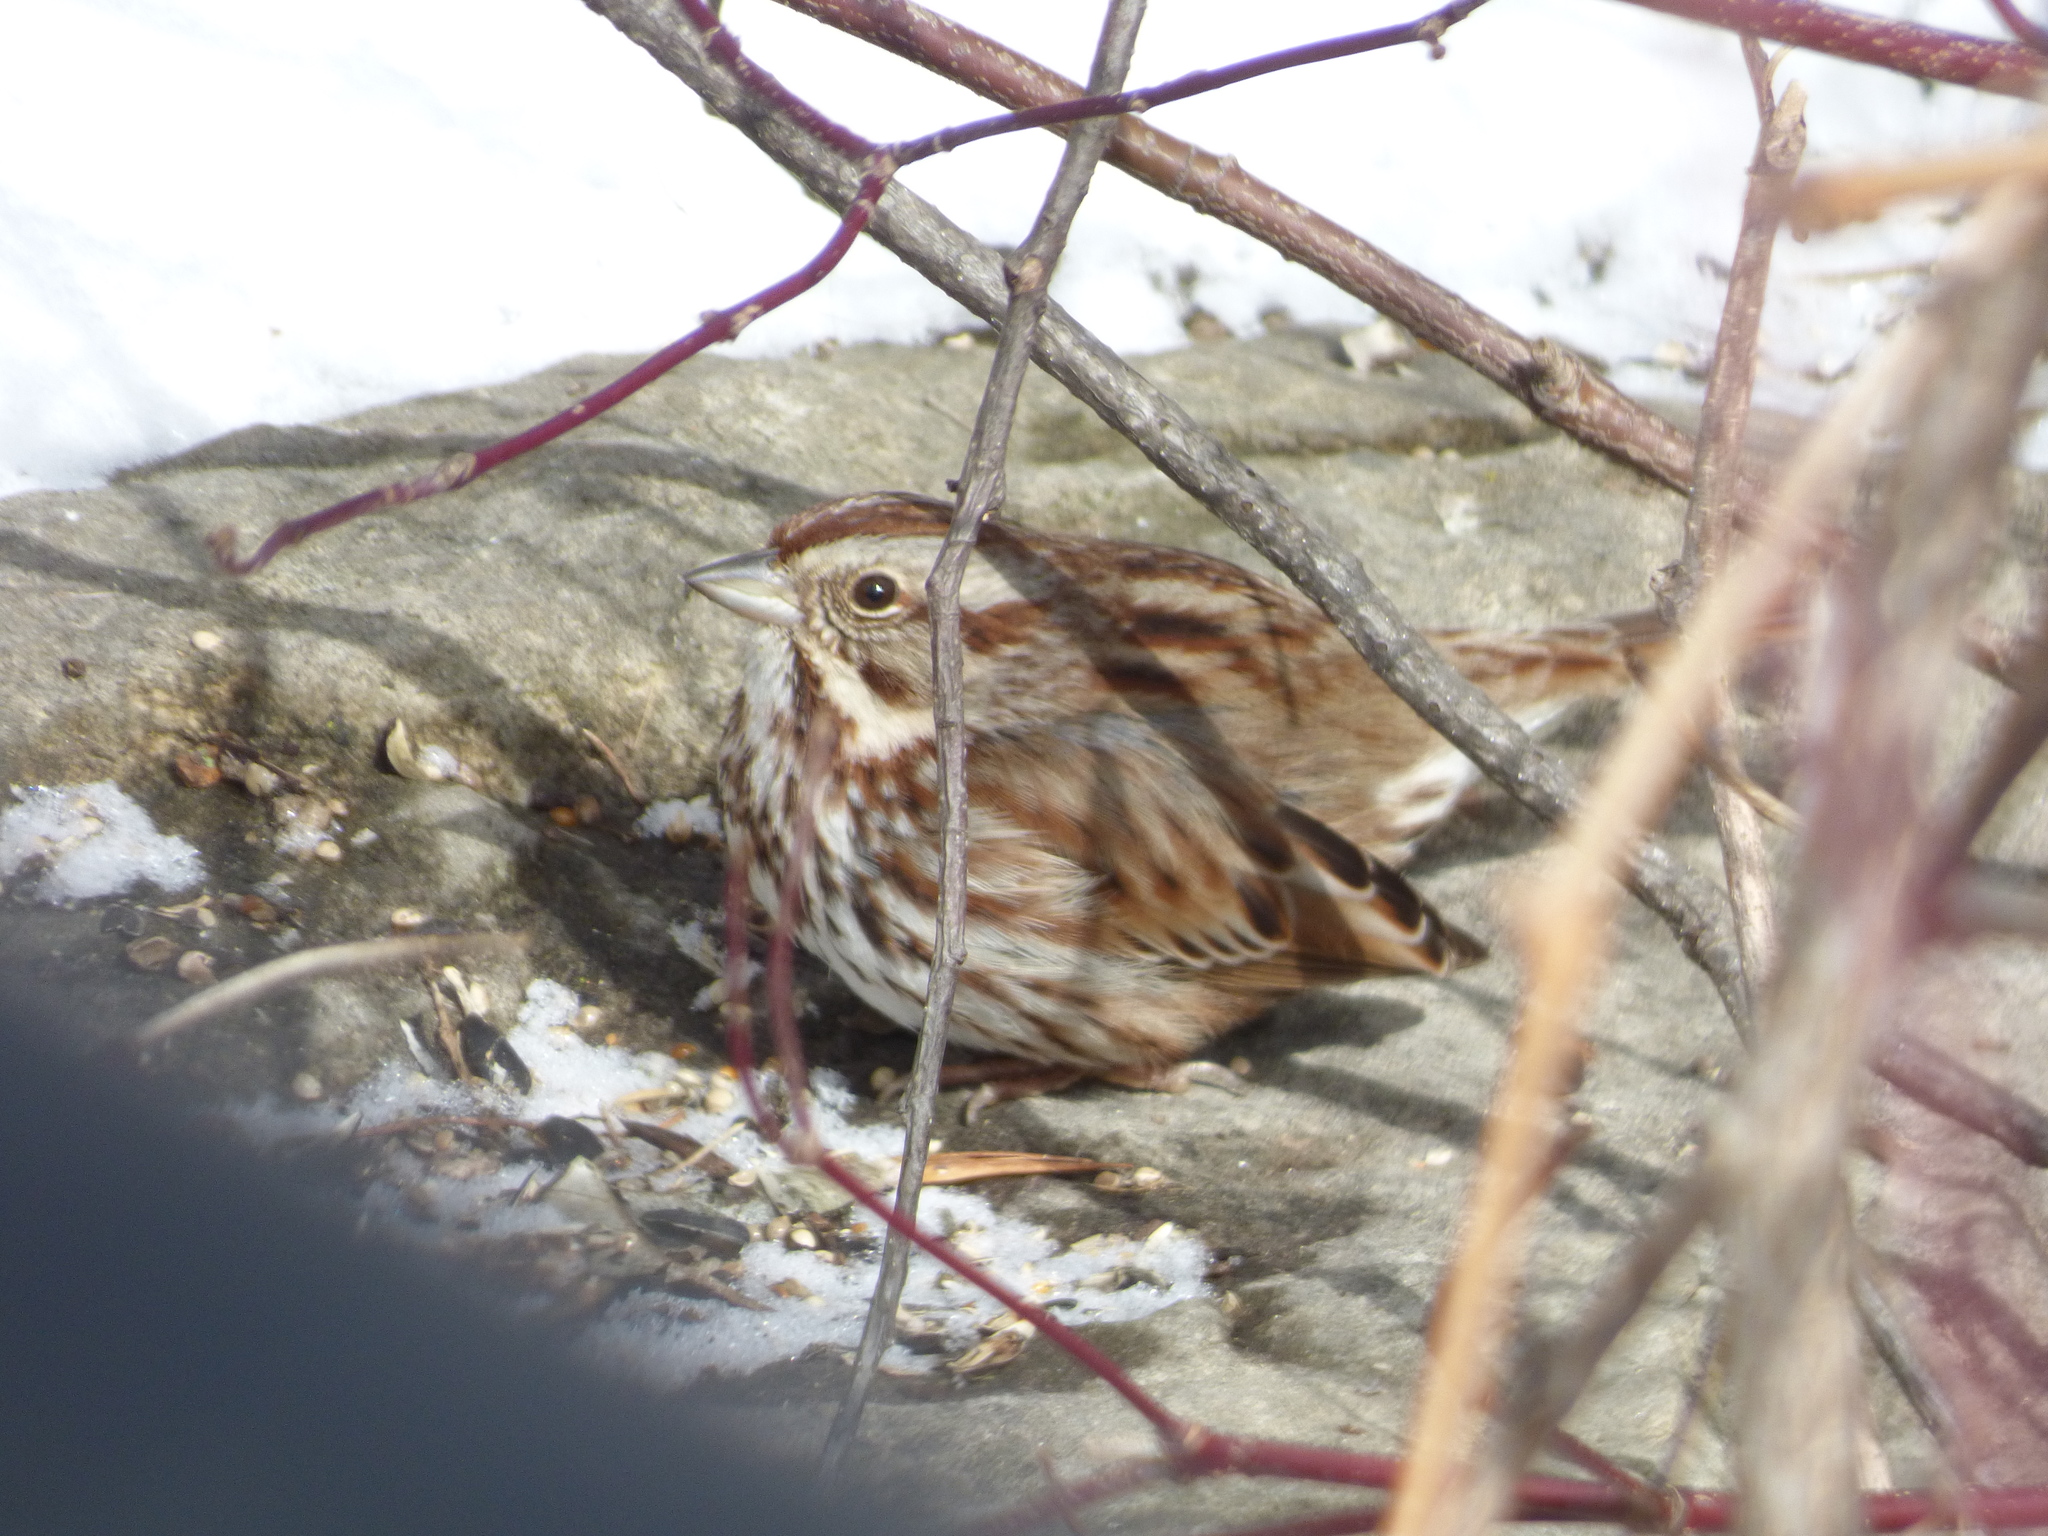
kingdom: Animalia
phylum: Chordata
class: Aves
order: Passeriformes
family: Passerellidae
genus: Melospiza
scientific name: Melospiza melodia
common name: Song sparrow
